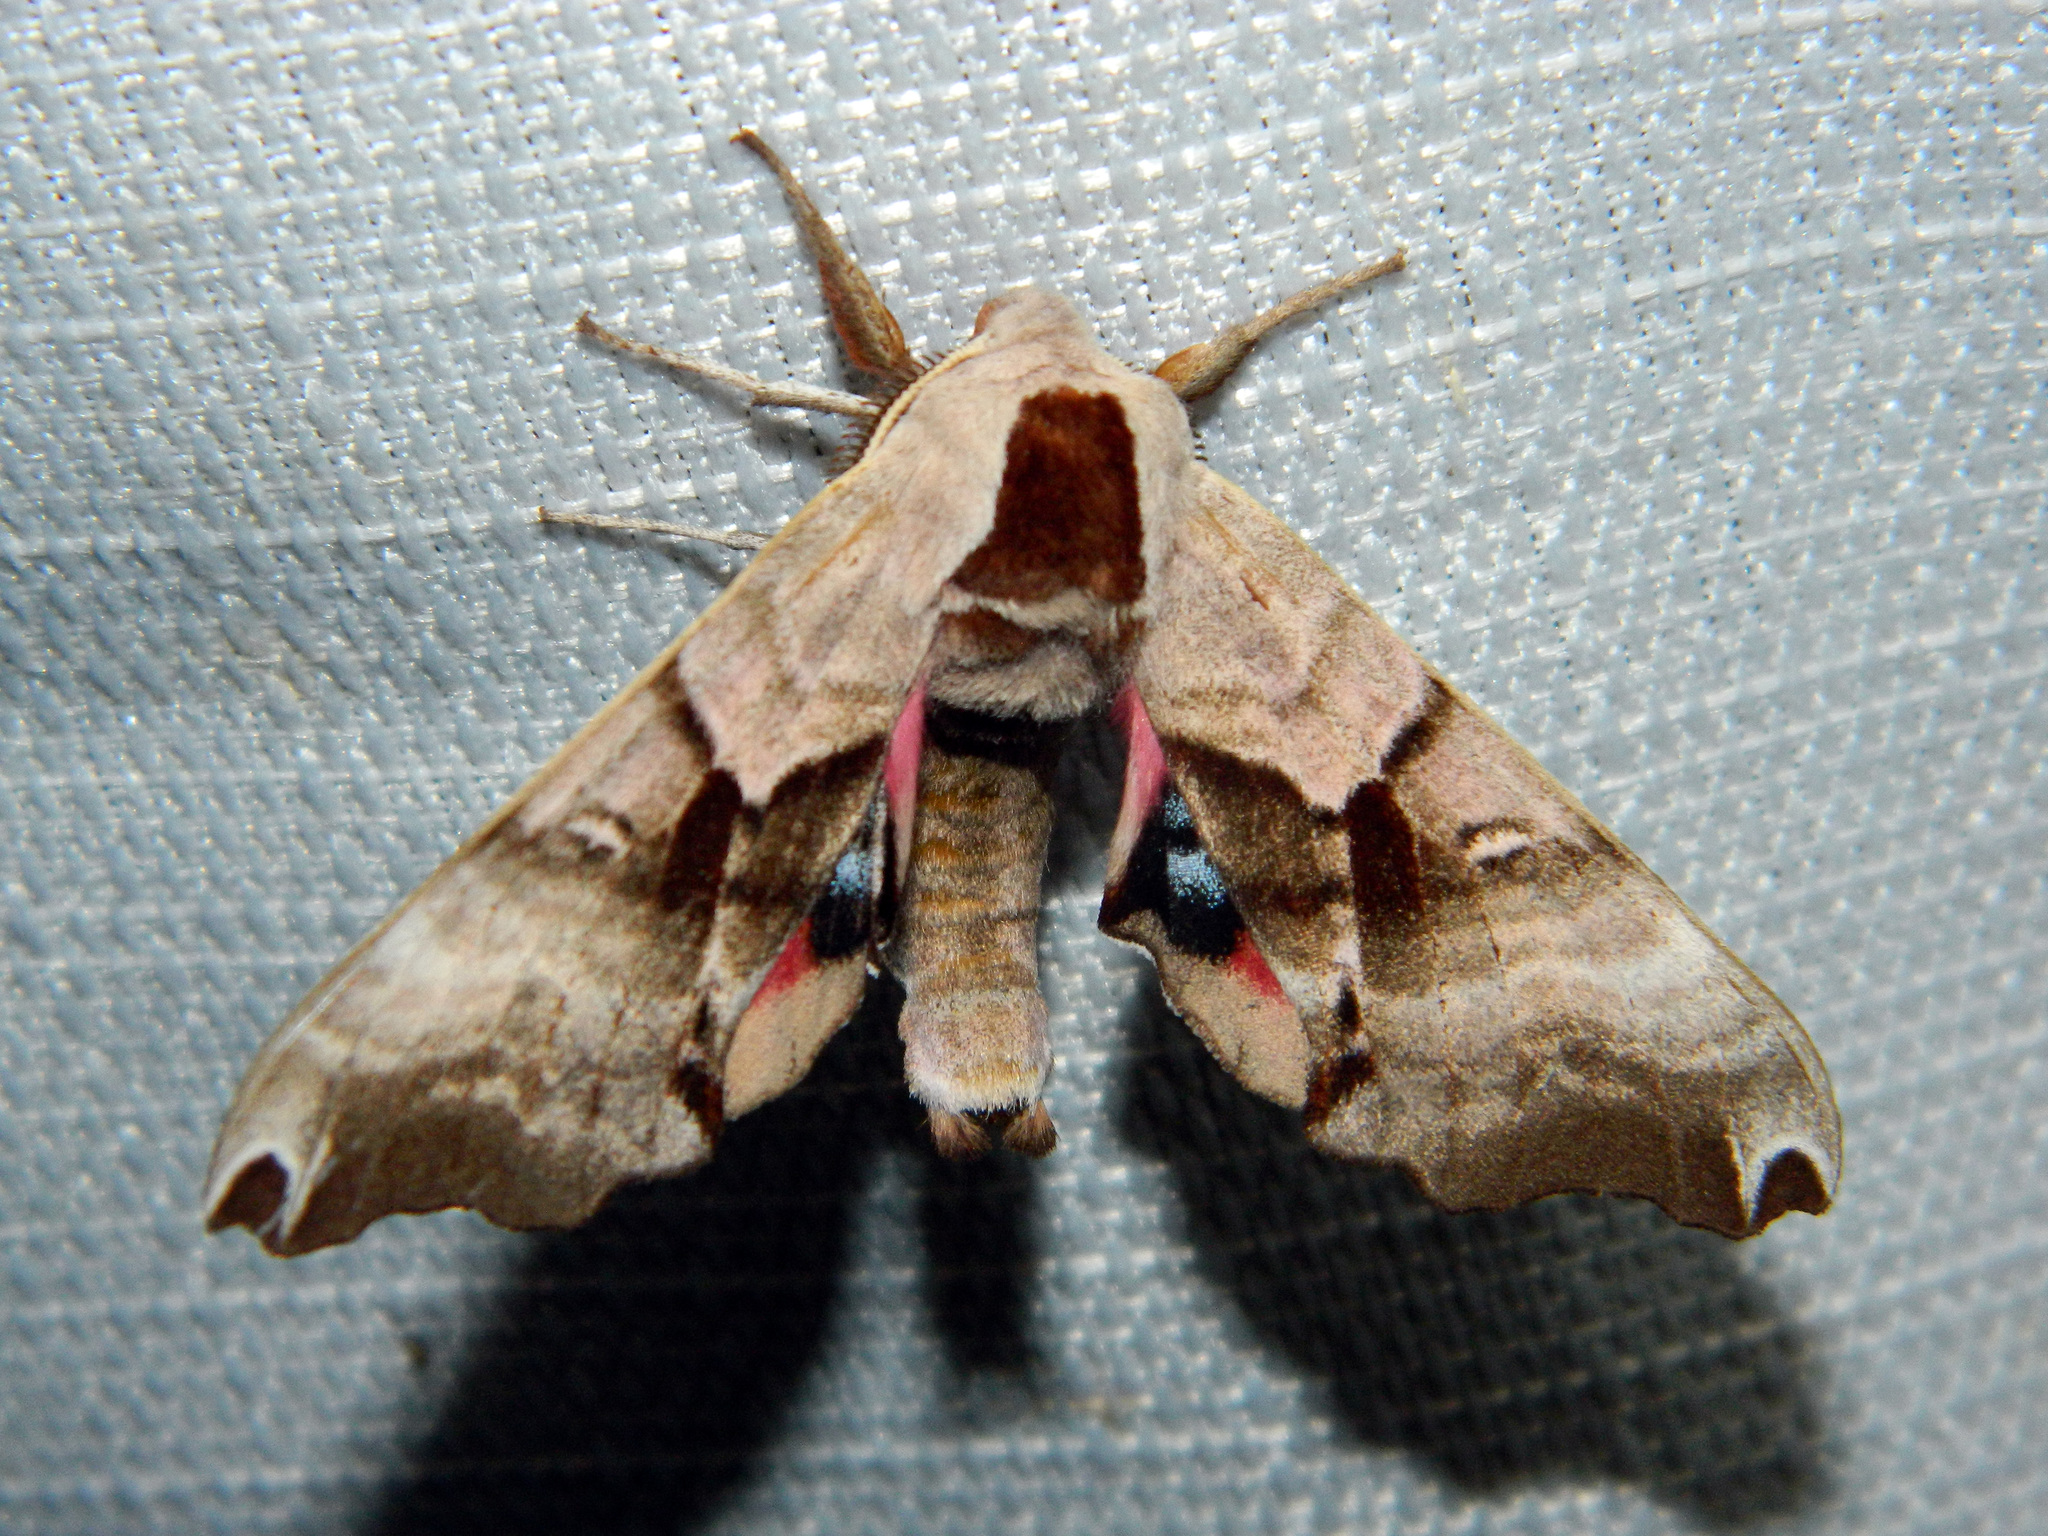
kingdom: Animalia
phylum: Arthropoda
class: Insecta
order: Lepidoptera
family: Sphingidae
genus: Smerinthus
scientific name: Smerinthus jamaicensis
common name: Twin spotted sphinx
